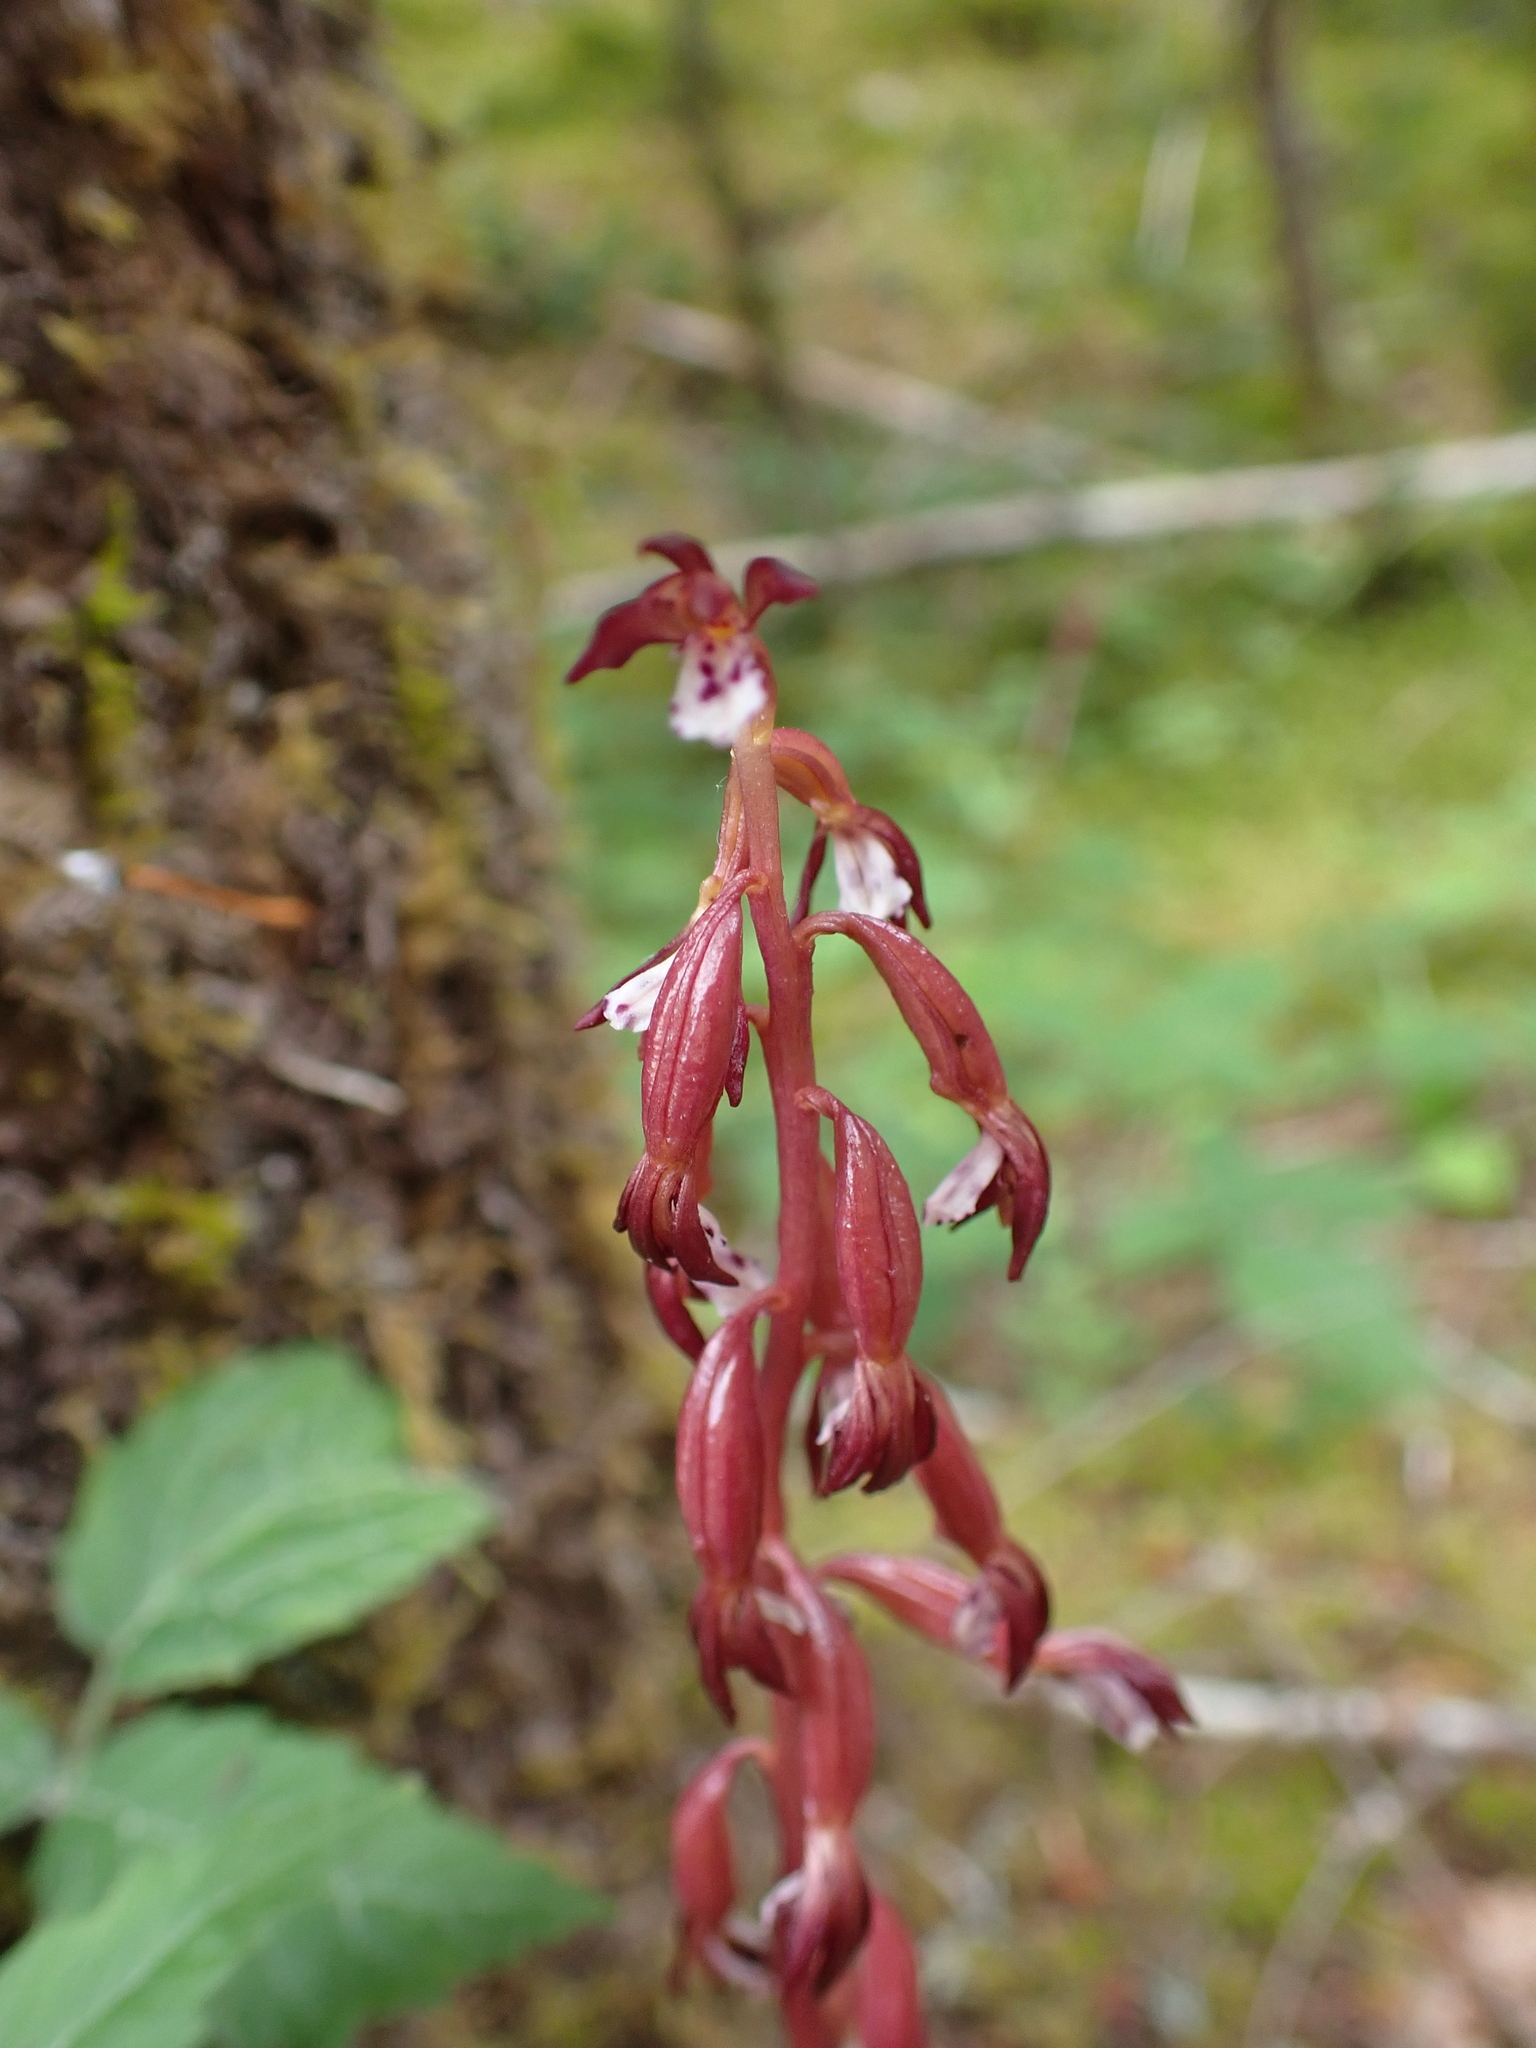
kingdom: Plantae
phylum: Tracheophyta
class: Liliopsida
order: Asparagales
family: Orchidaceae
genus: Corallorhiza
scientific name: Corallorhiza maculata
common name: Spotted coralroot
